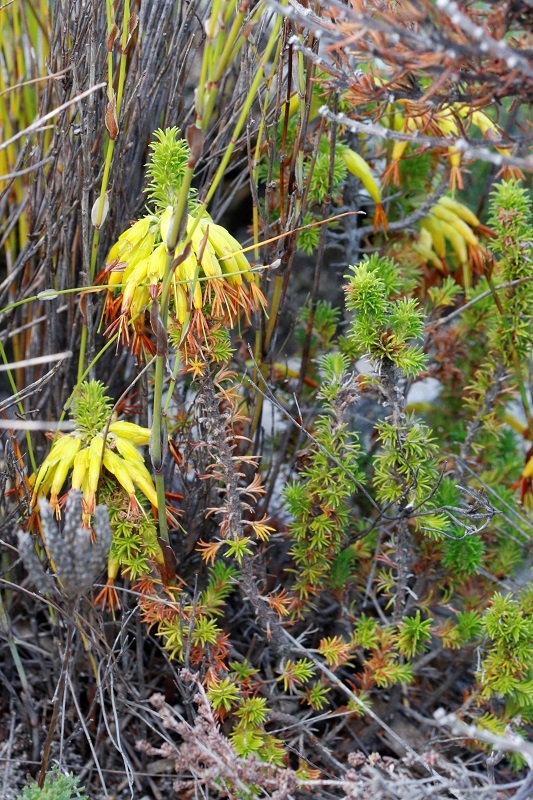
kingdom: Plantae
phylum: Tracheophyta
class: Magnoliopsida
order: Ericales
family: Ericaceae
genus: Erica
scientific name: Erica coccinea
